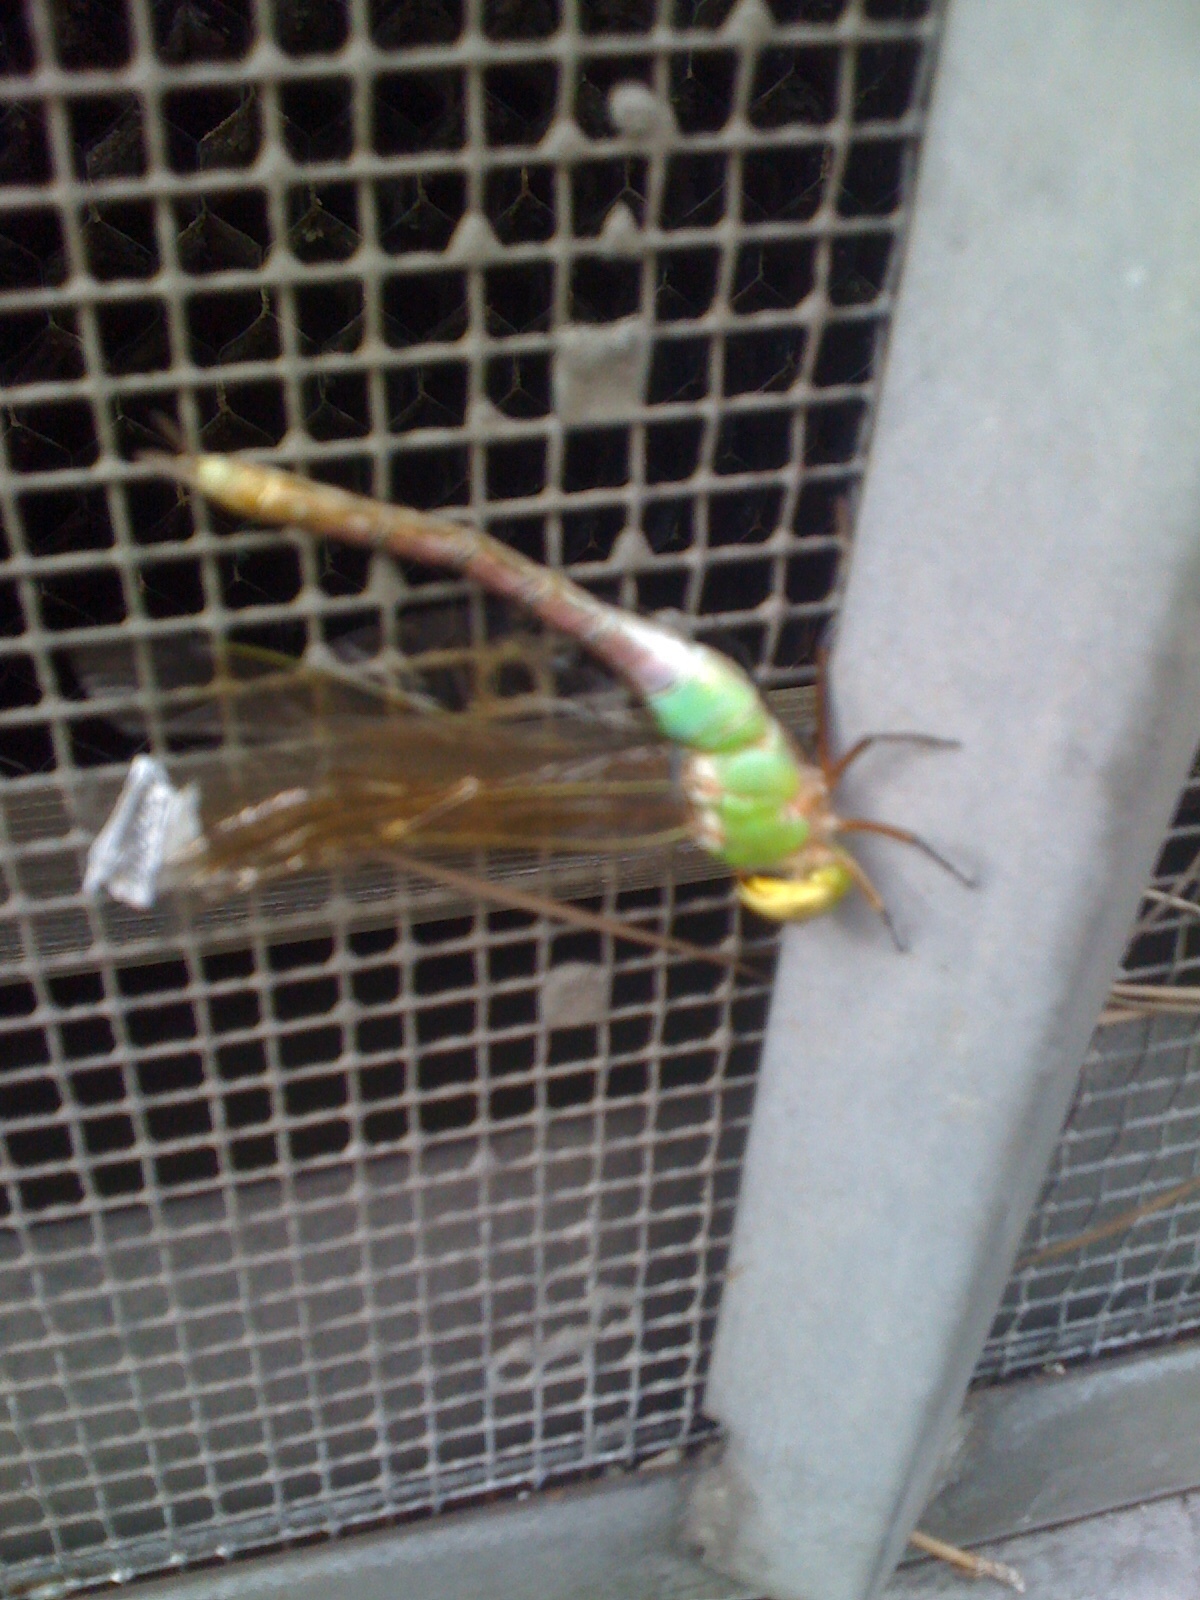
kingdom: Animalia
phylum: Arthropoda
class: Insecta
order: Odonata
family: Aeshnidae
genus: Anax
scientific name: Anax junius
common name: Common green darner
